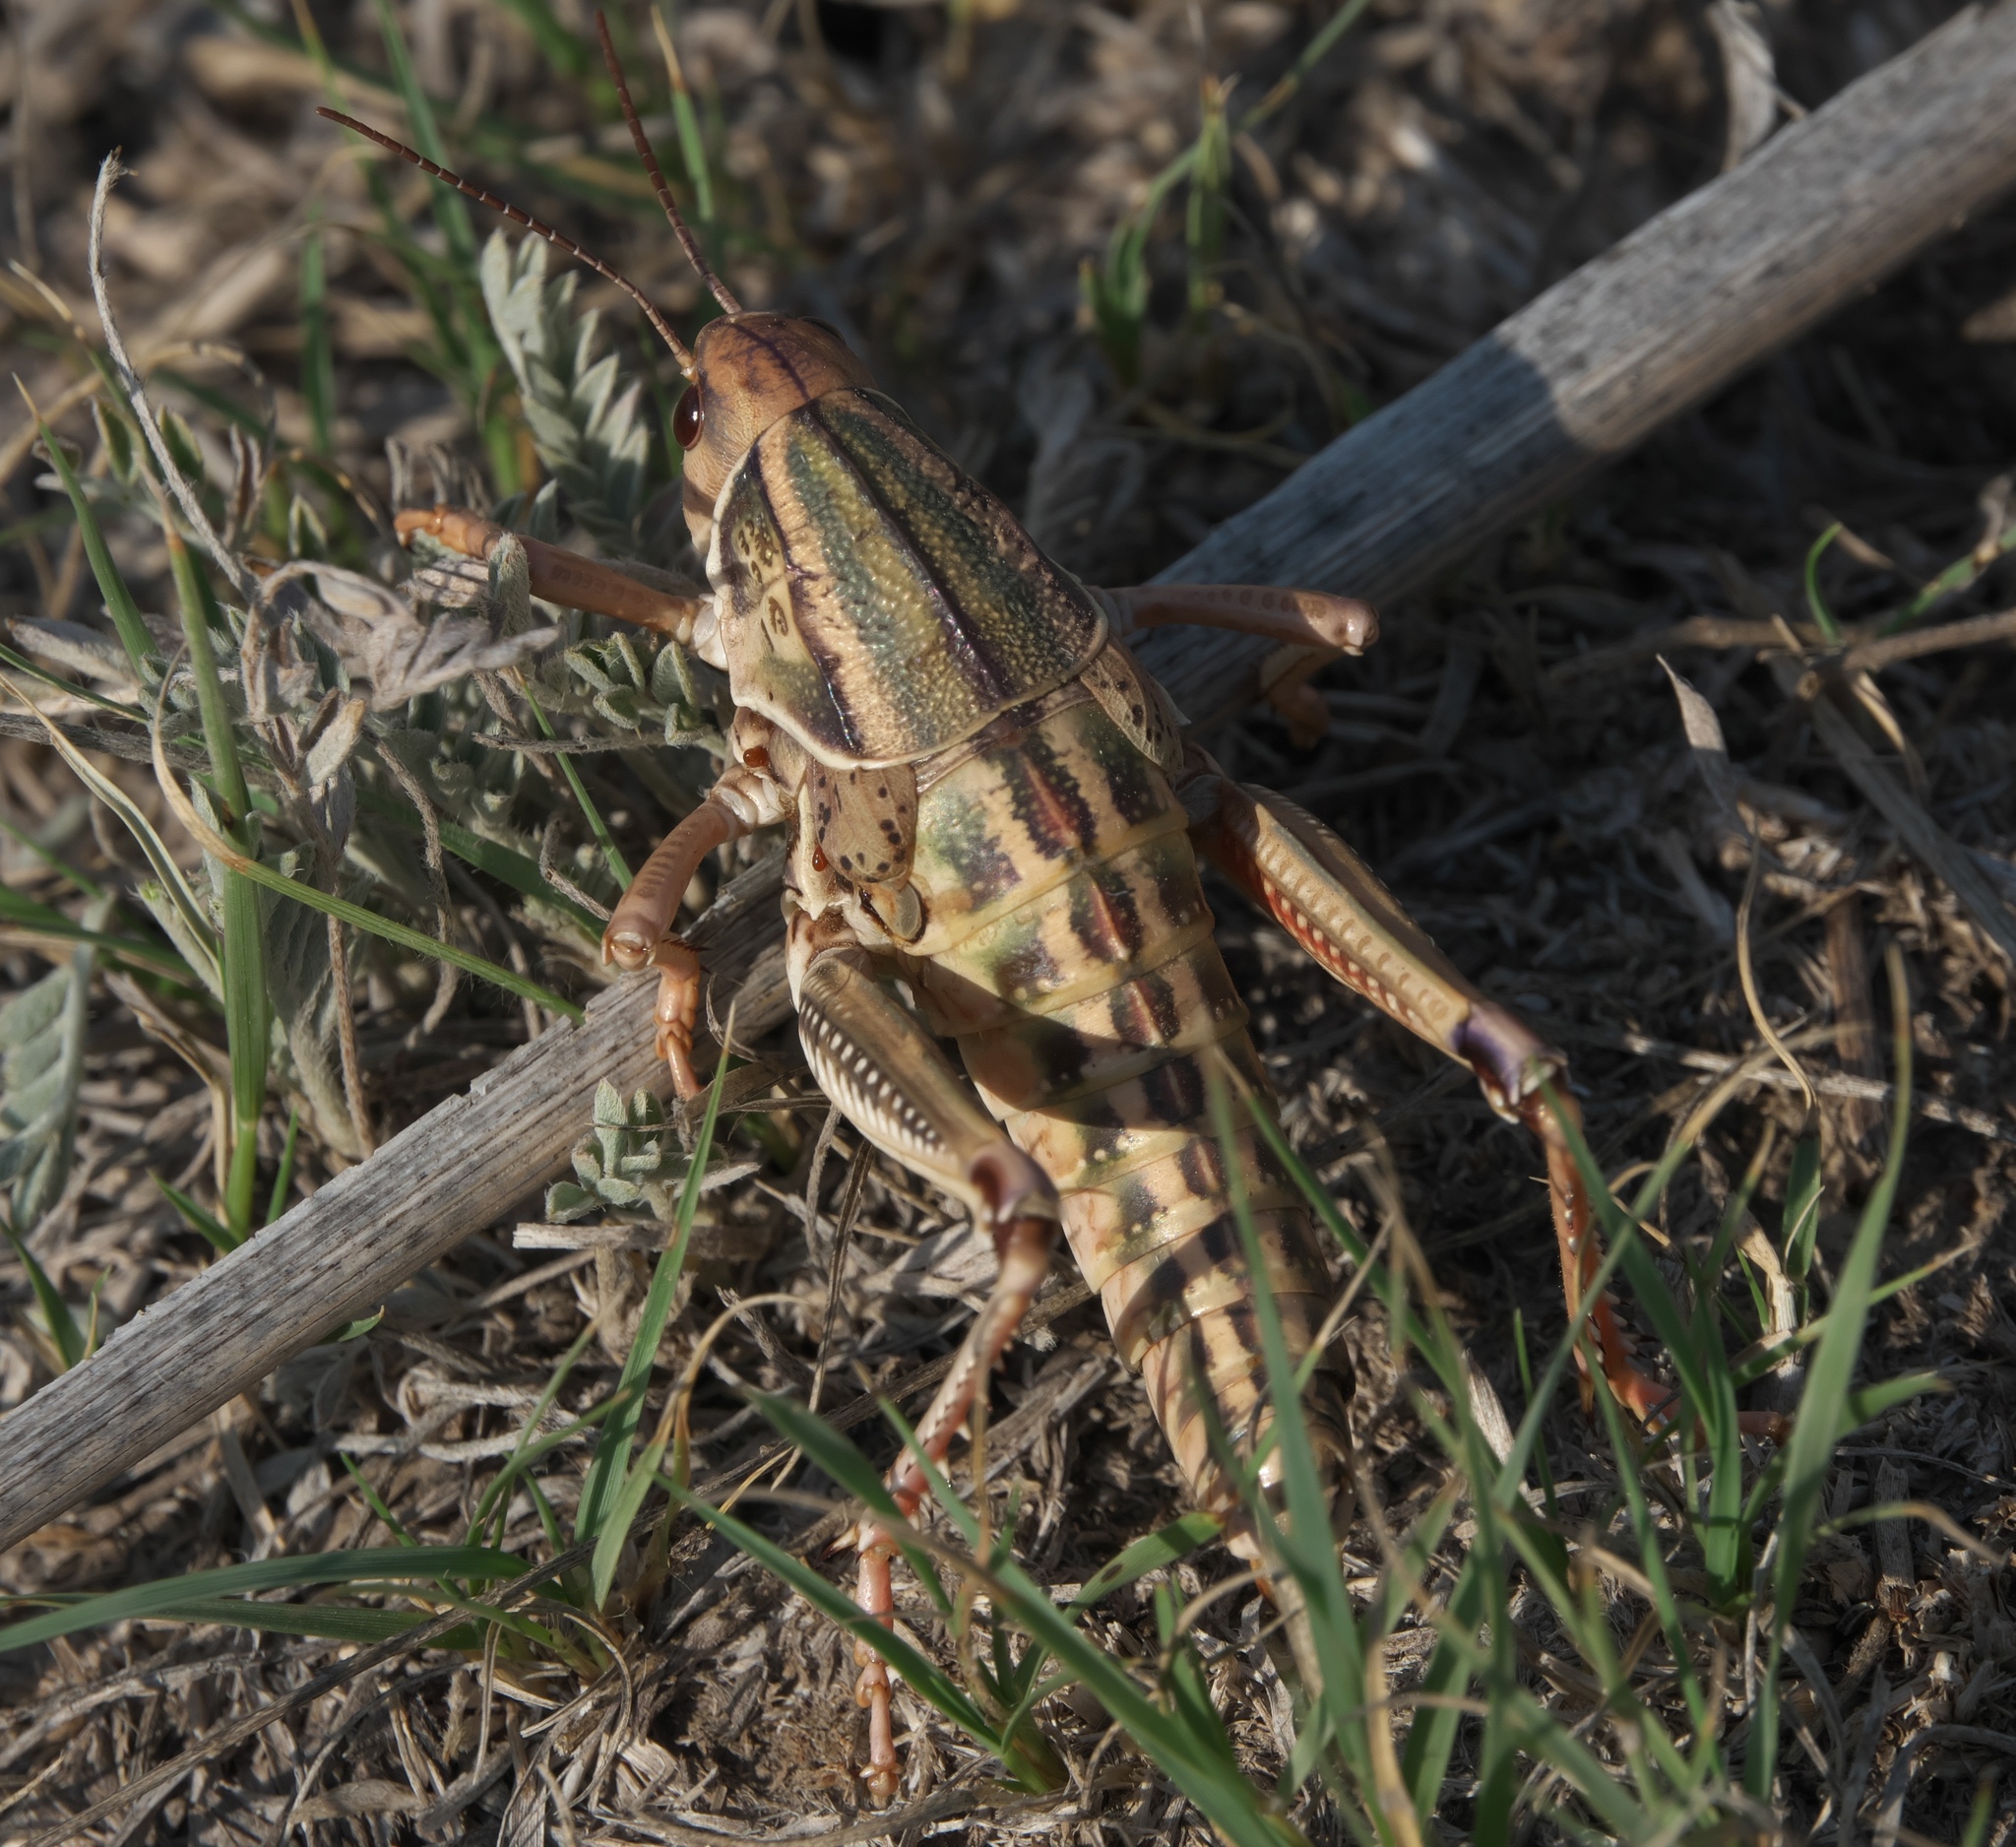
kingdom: Animalia
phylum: Arthropoda
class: Insecta
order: Orthoptera
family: Romaleidae
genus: Brachystola
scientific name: Brachystola magna
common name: Plains lubber grasshopper
